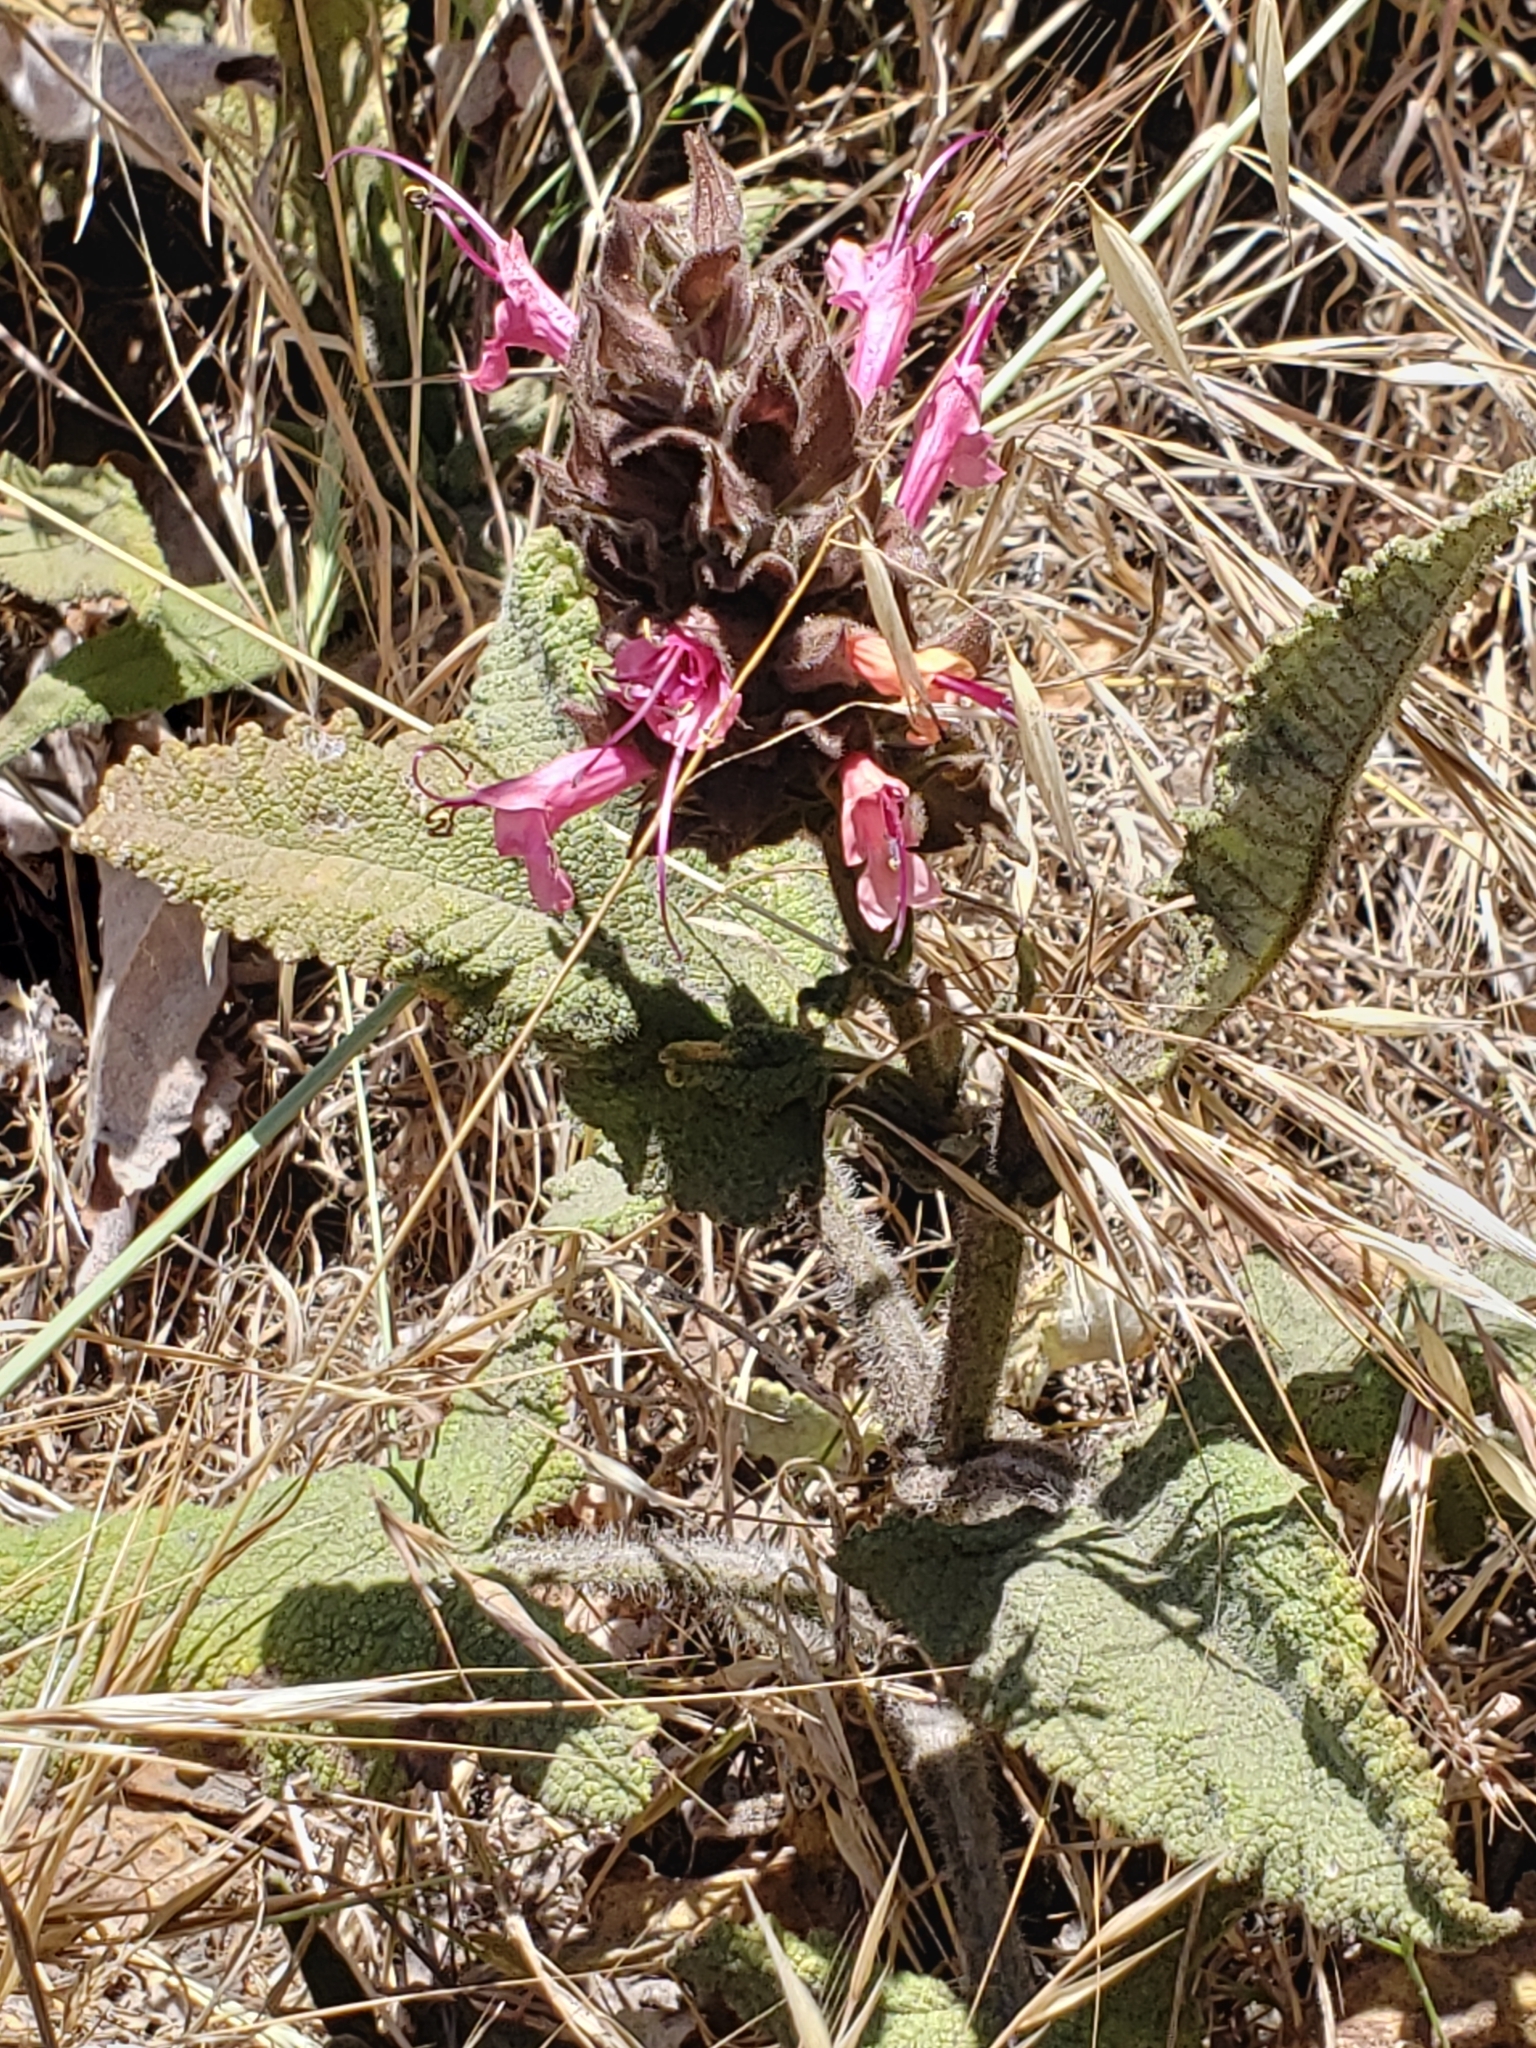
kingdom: Plantae
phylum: Tracheophyta
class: Magnoliopsida
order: Lamiales
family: Lamiaceae
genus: Salvia
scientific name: Salvia spathacea
